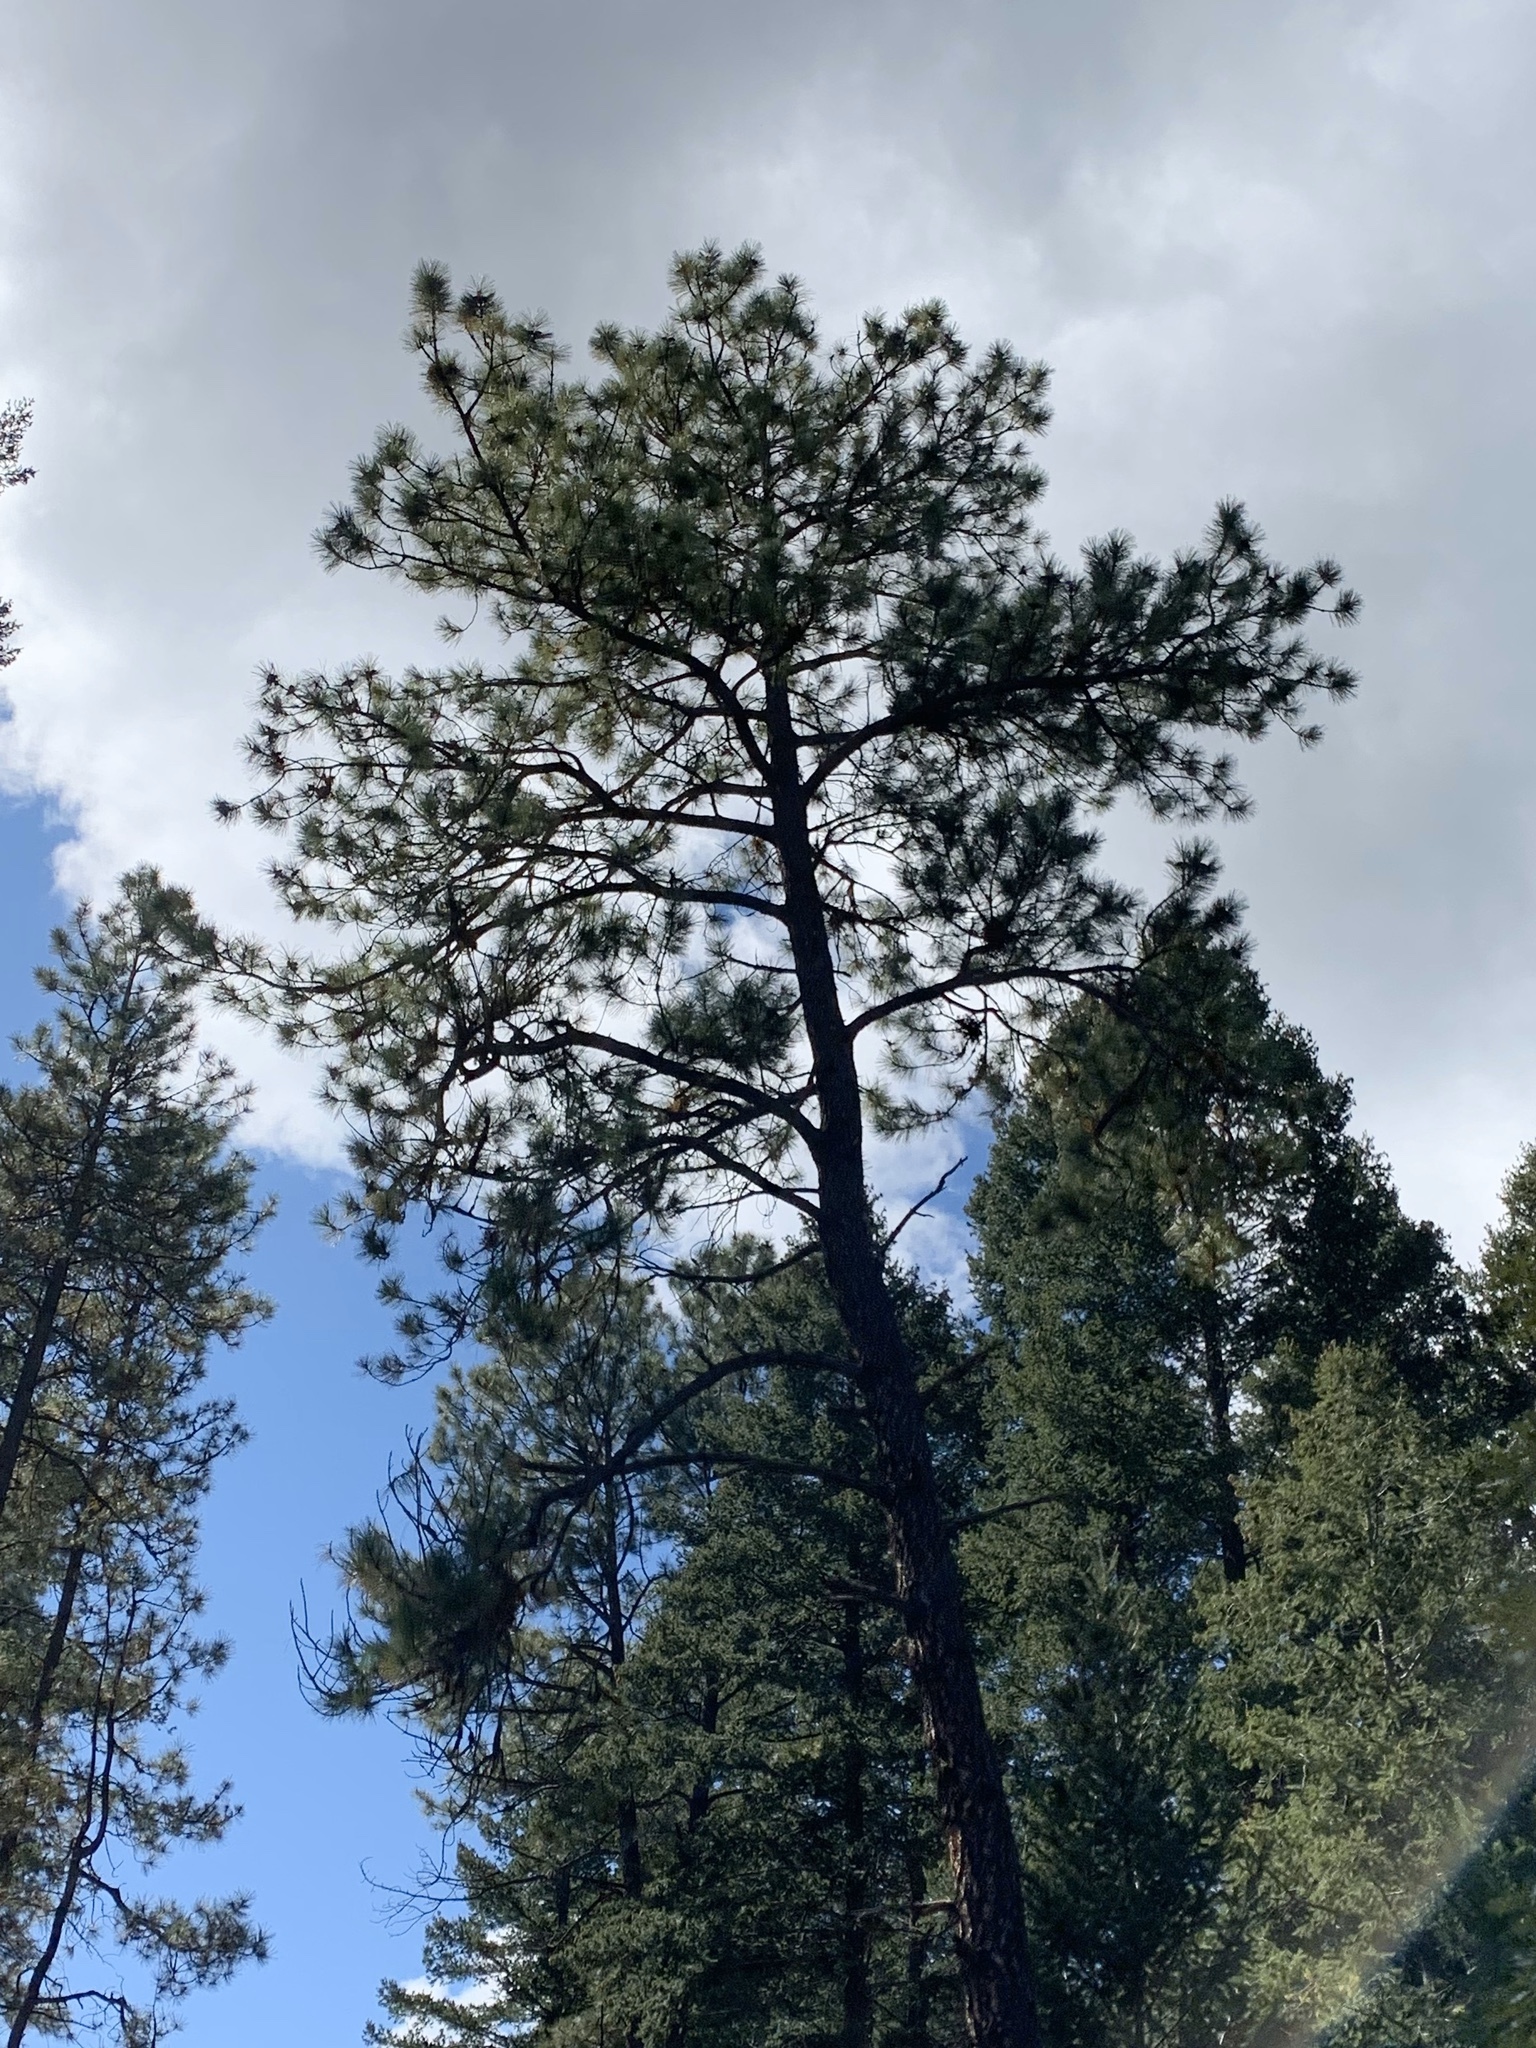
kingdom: Plantae
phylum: Tracheophyta
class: Pinopsida
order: Pinales
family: Pinaceae
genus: Pinus
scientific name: Pinus ponderosa
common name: Western yellow-pine
